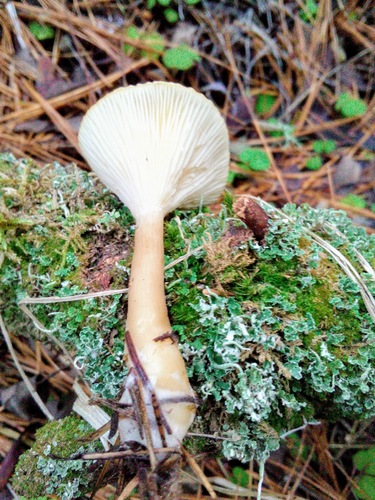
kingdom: Fungi
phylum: Basidiomycota
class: Agaricomycetes
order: Agaricales
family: Hygrophoraceae
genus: Ampulloclitocybe
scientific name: Ampulloclitocybe clavipes
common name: Club foot
